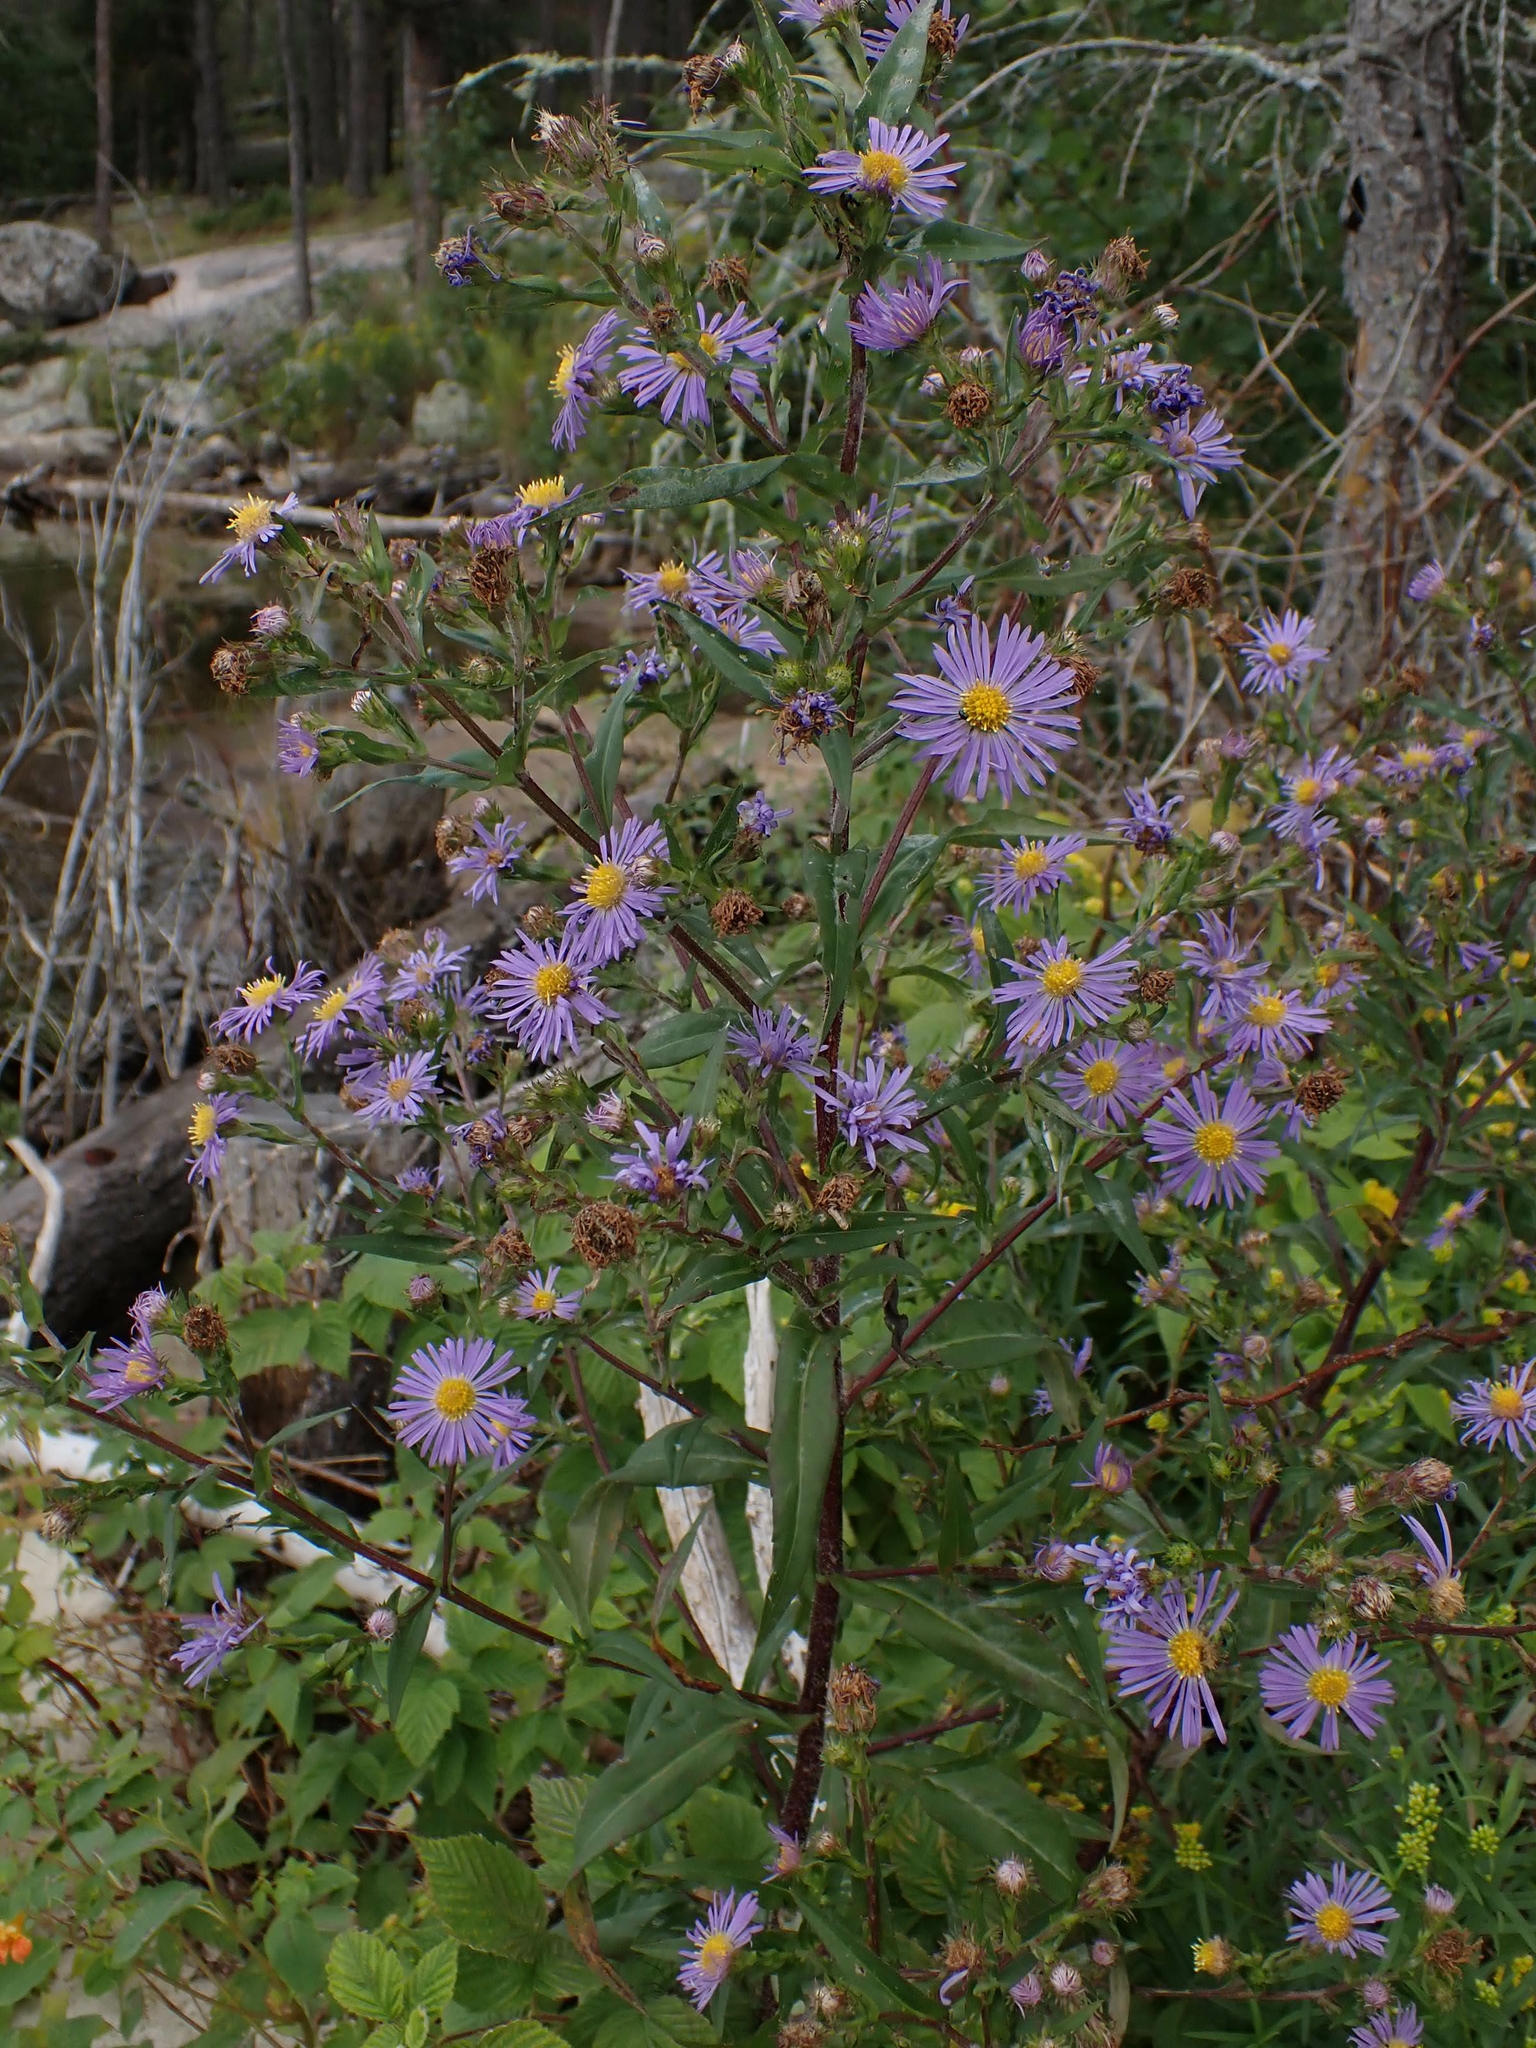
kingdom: Plantae
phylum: Tracheophyta
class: Magnoliopsida
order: Asterales
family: Asteraceae
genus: Symphyotrichum
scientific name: Symphyotrichum puniceum
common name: Bog aster
